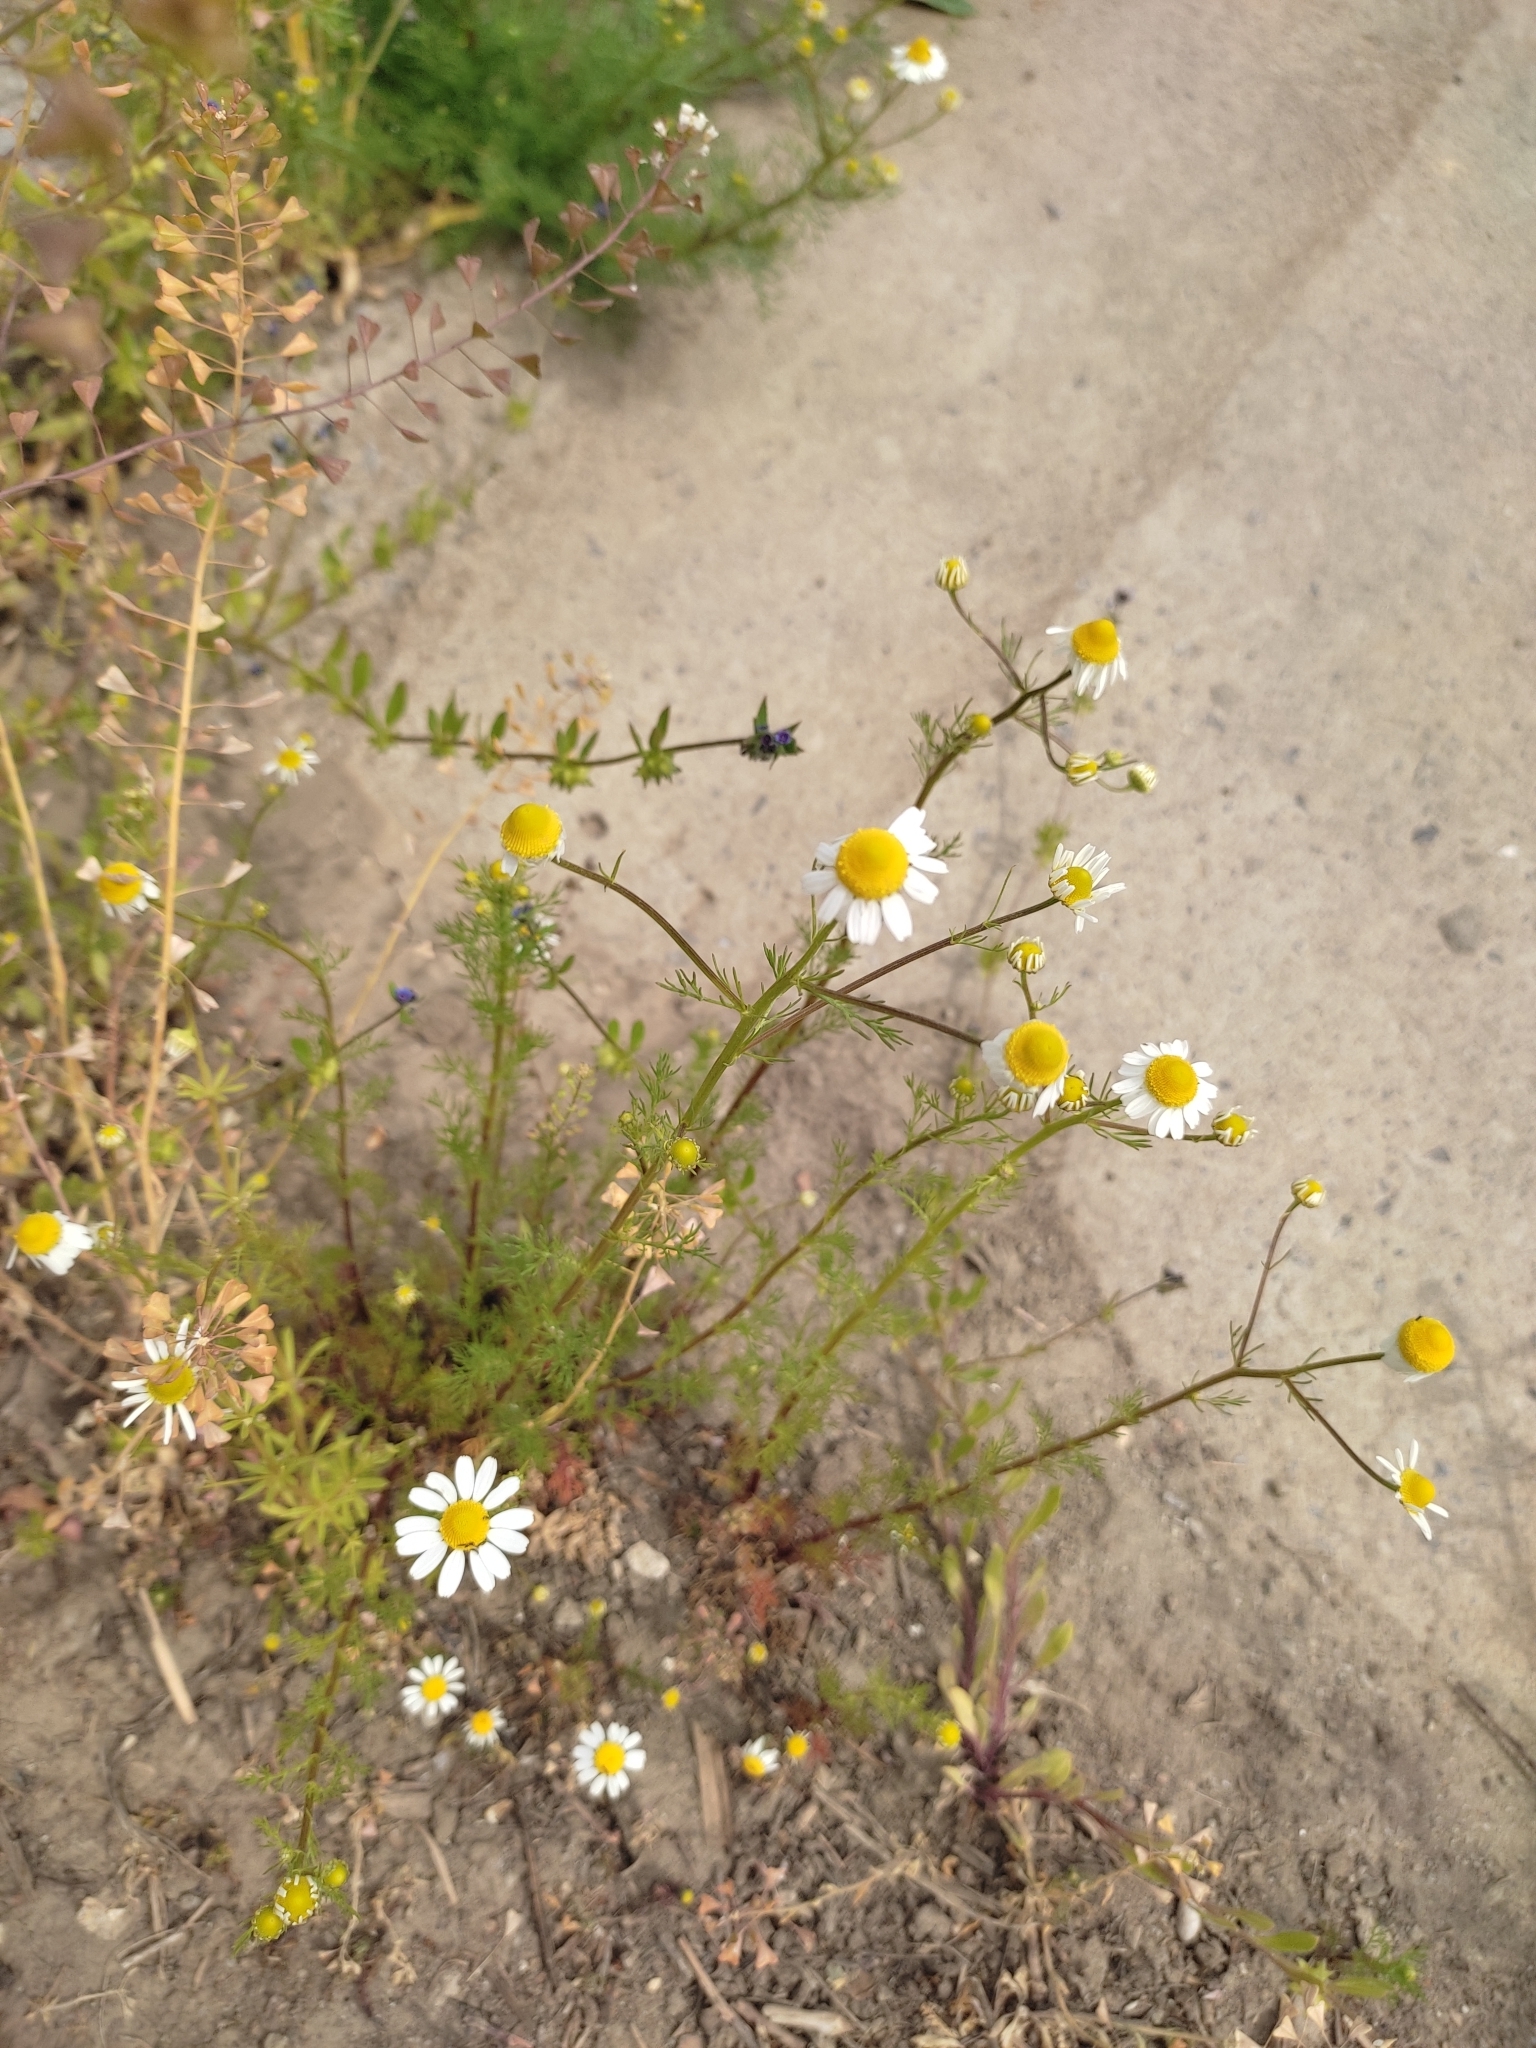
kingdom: Plantae
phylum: Tracheophyta
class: Magnoliopsida
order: Asterales
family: Asteraceae
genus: Matricaria
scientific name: Matricaria chamomilla
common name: Scented mayweed
